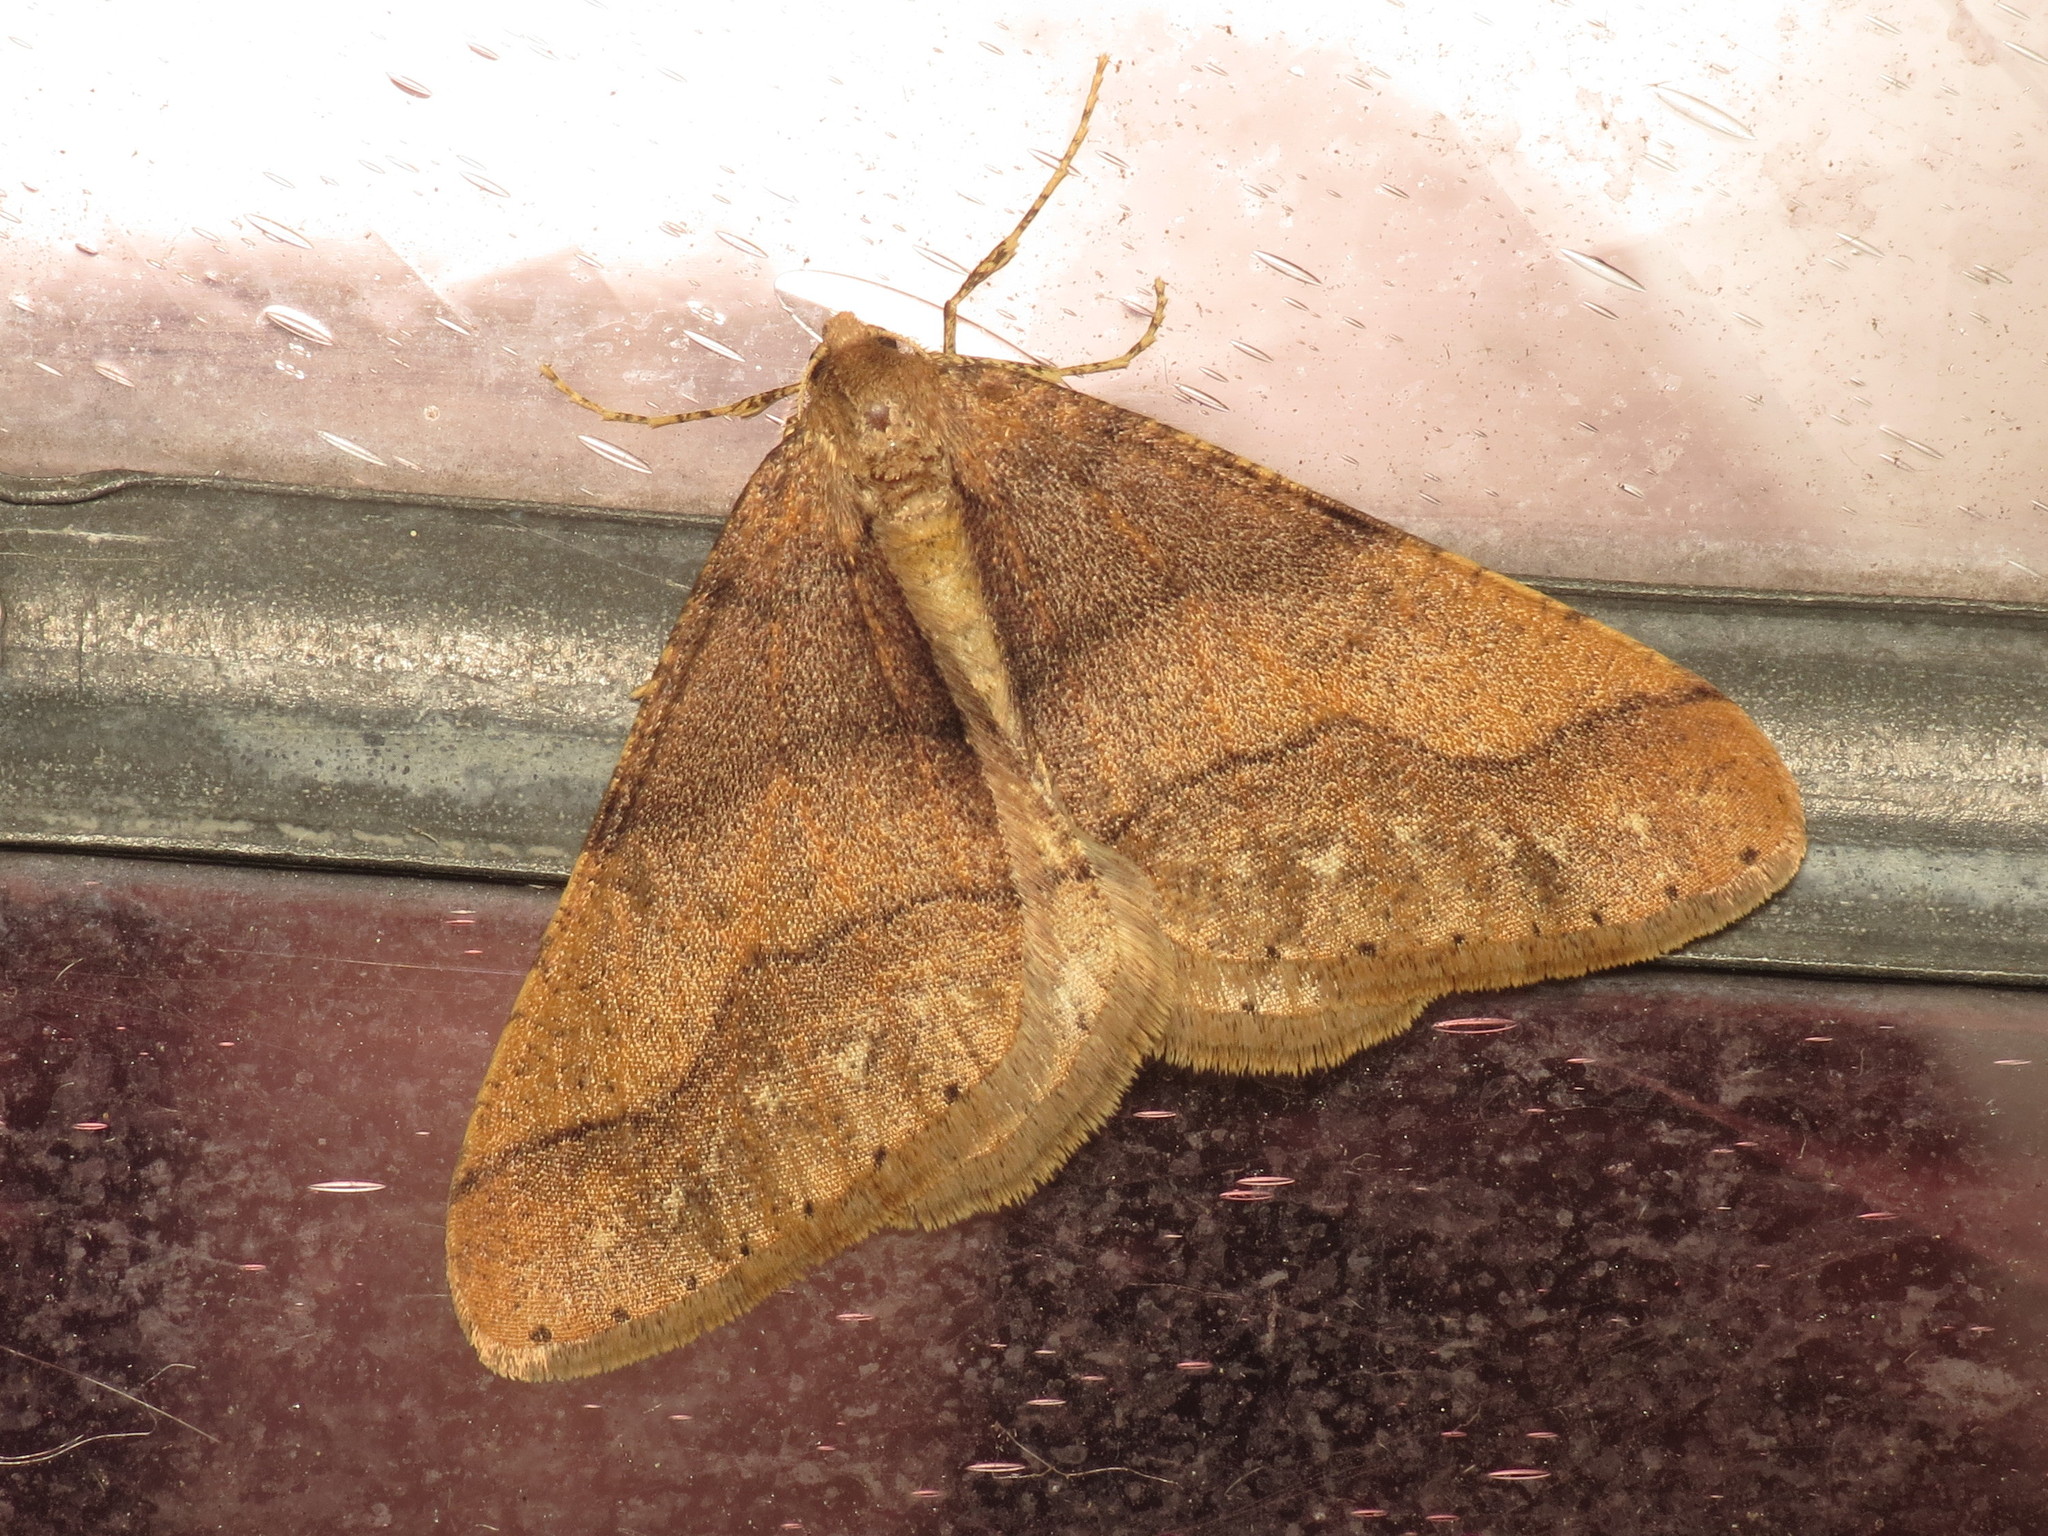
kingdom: Animalia
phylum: Arthropoda
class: Insecta
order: Lepidoptera
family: Geometridae
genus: Agriopis
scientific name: Agriopis marginaria
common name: Dotted border
